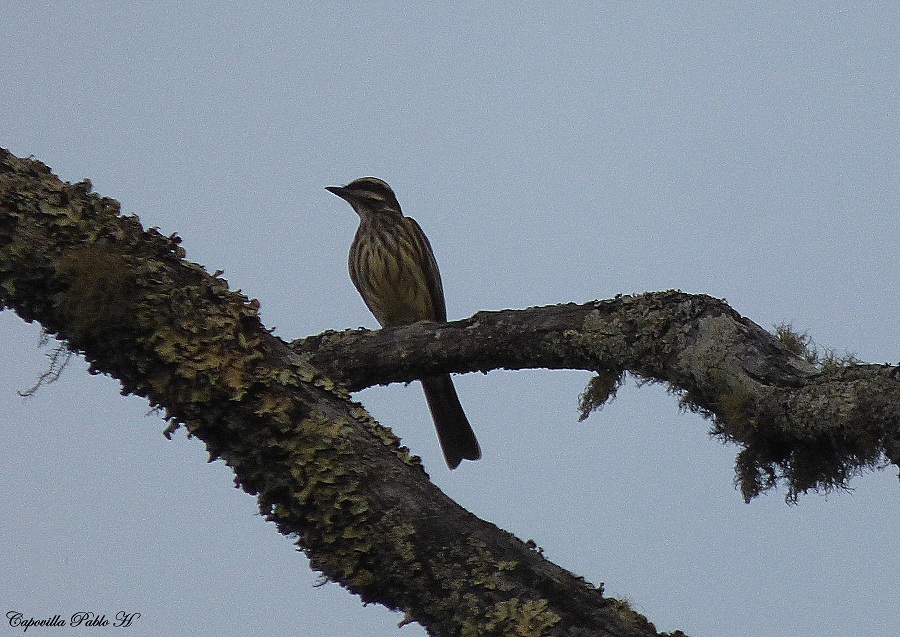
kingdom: Animalia
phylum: Chordata
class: Aves
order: Passeriformes
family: Tyrannidae
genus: Empidonomus
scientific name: Empidonomus varius
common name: Variegated flycatcher
